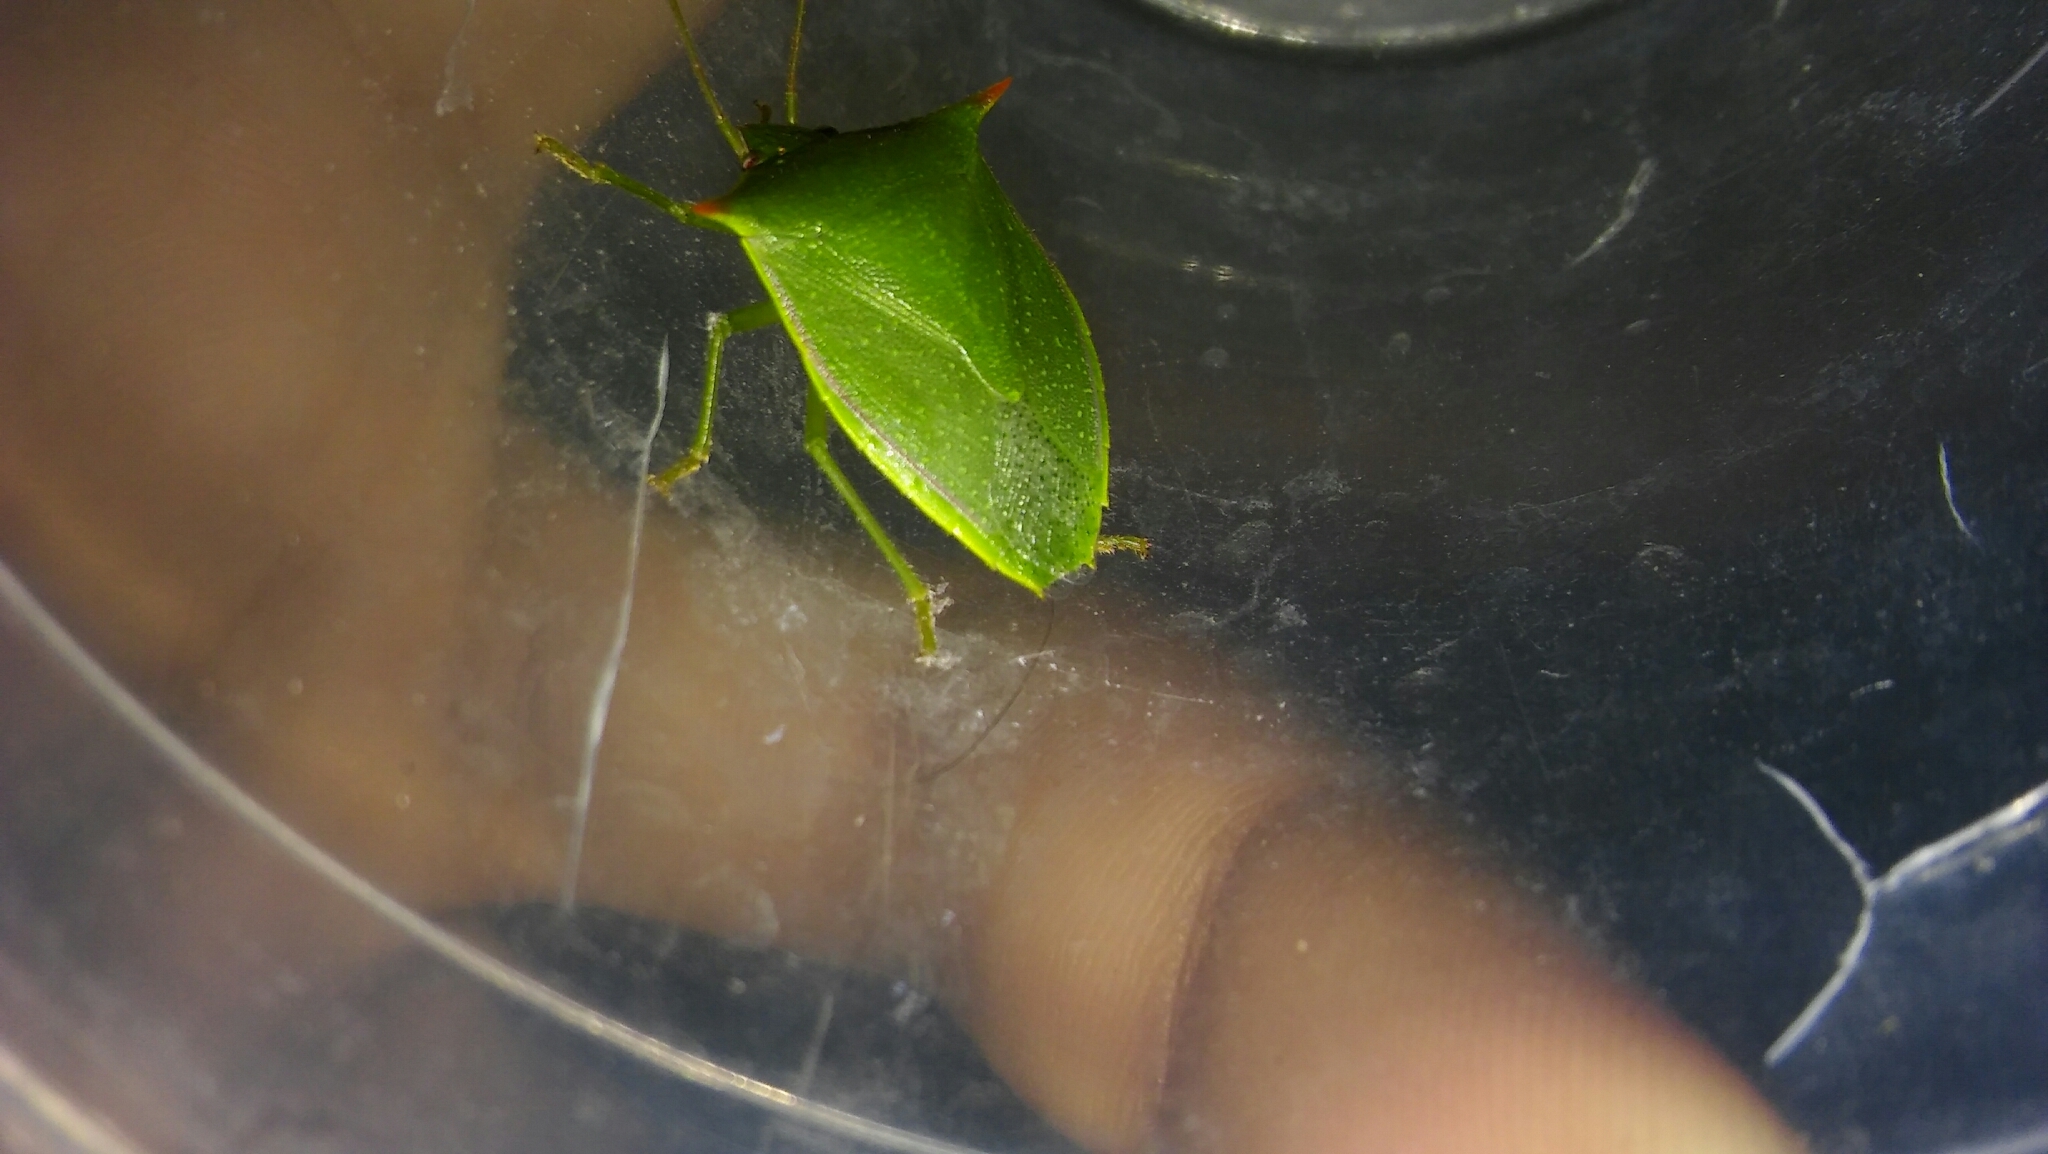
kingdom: Animalia
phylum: Arthropoda
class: Insecta
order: Hemiptera
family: Pentatomidae
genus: Loxa
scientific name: Loxa deducta
